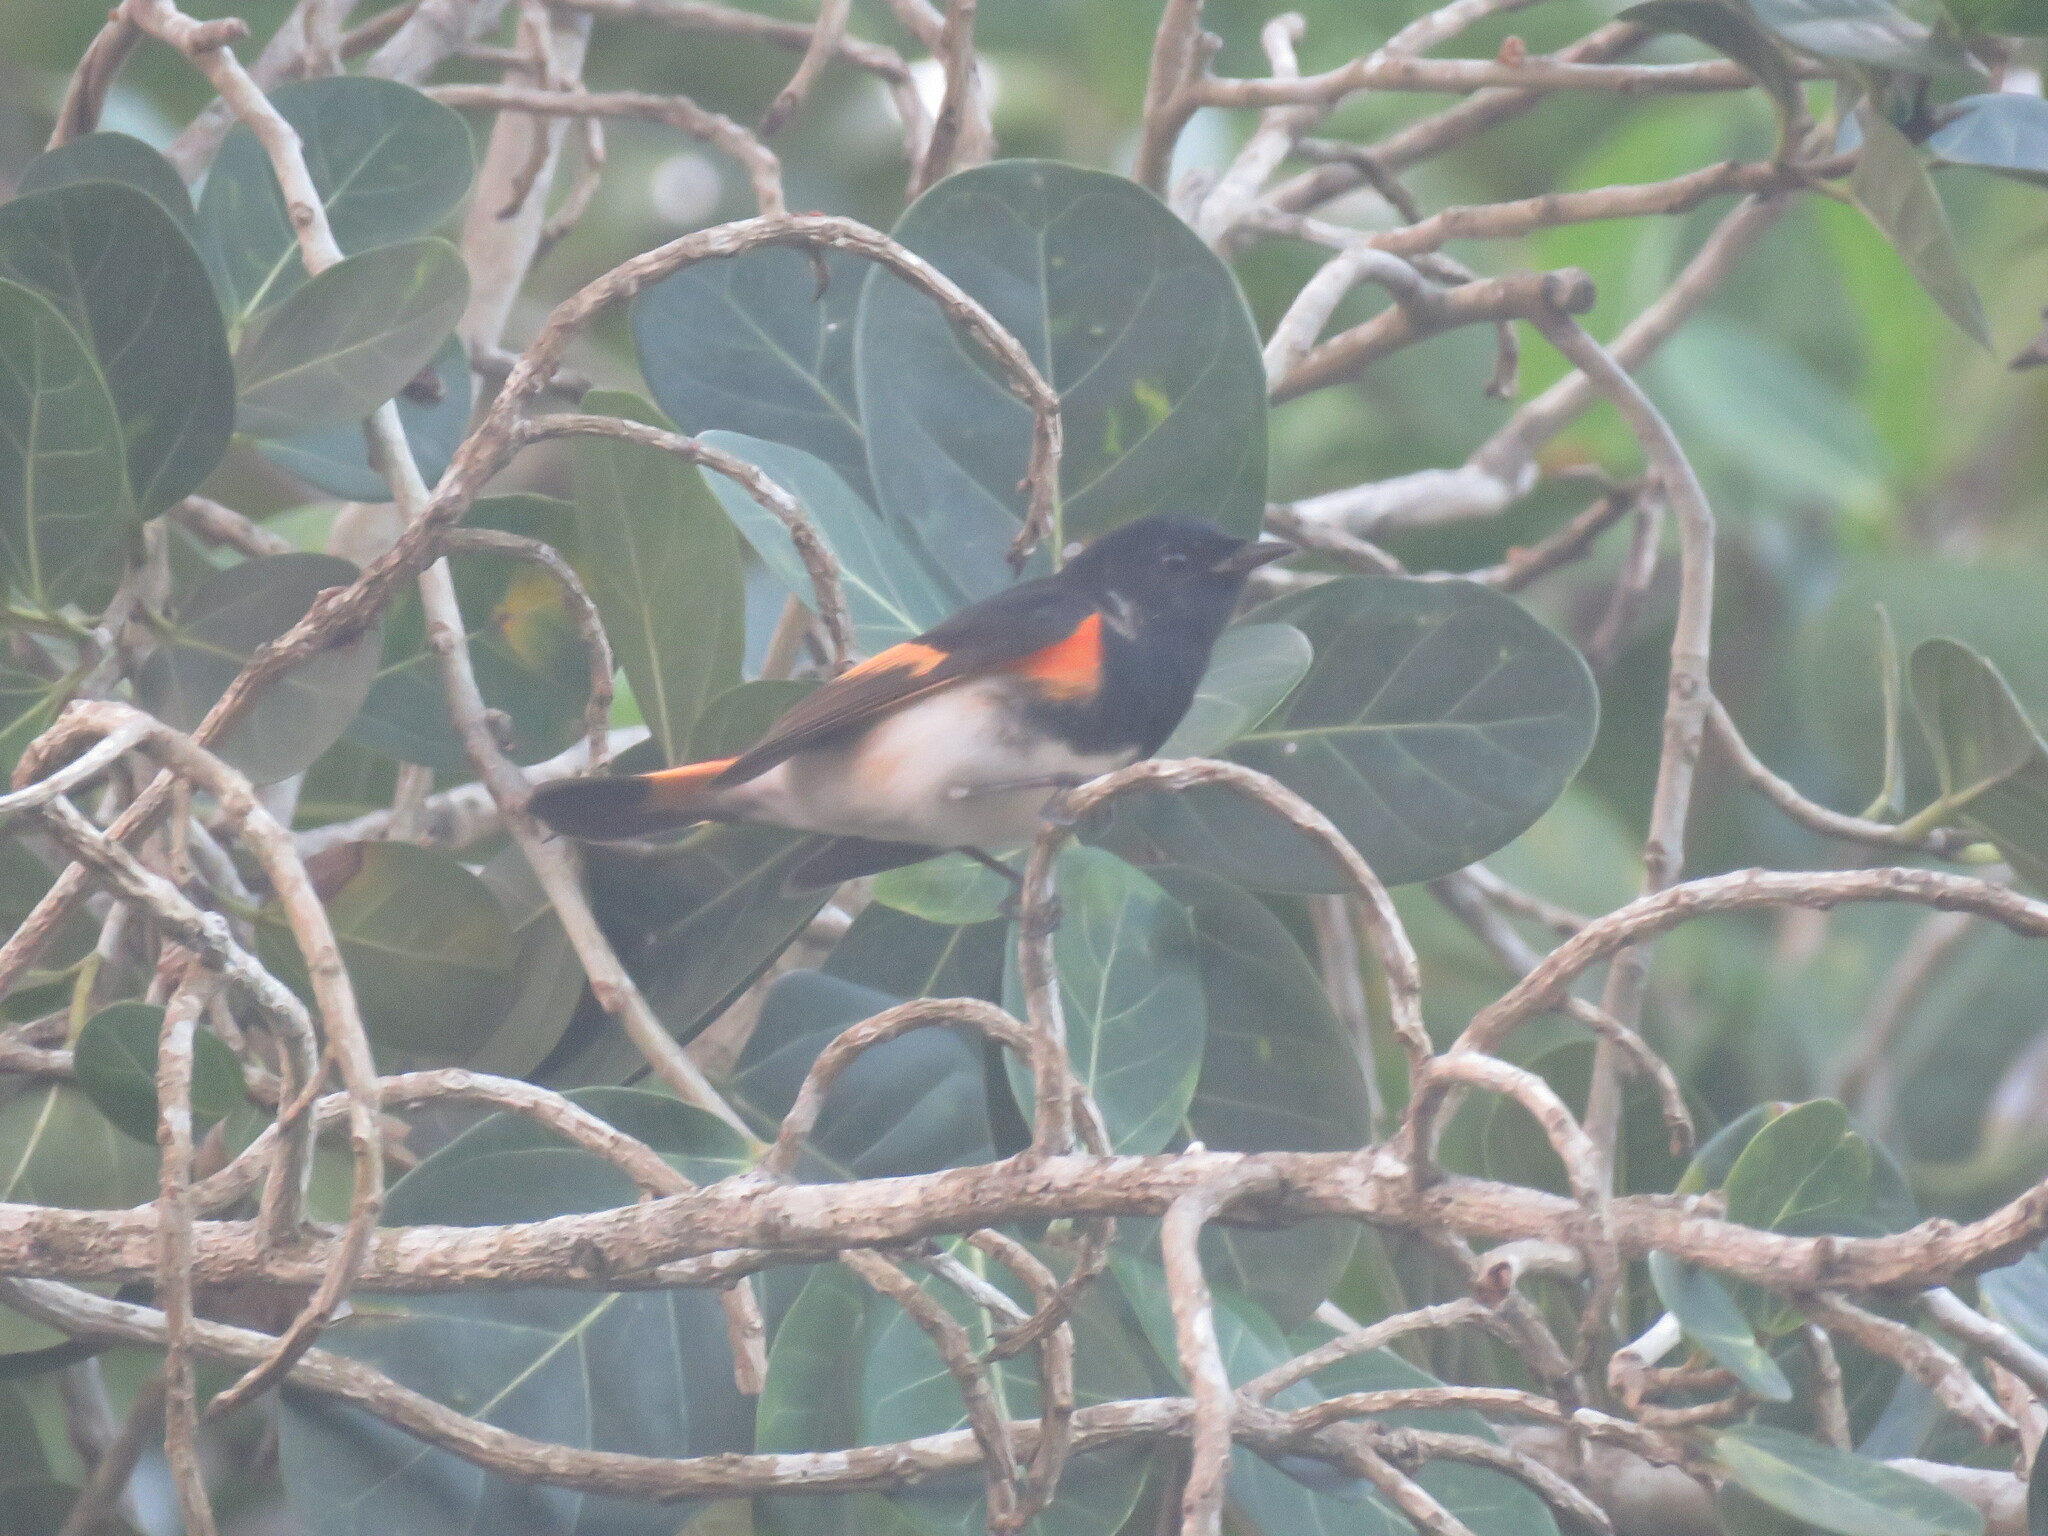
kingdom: Animalia
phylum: Chordata
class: Aves
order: Passeriformes
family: Parulidae
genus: Setophaga
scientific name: Setophaga ruticilla
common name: American redstart
